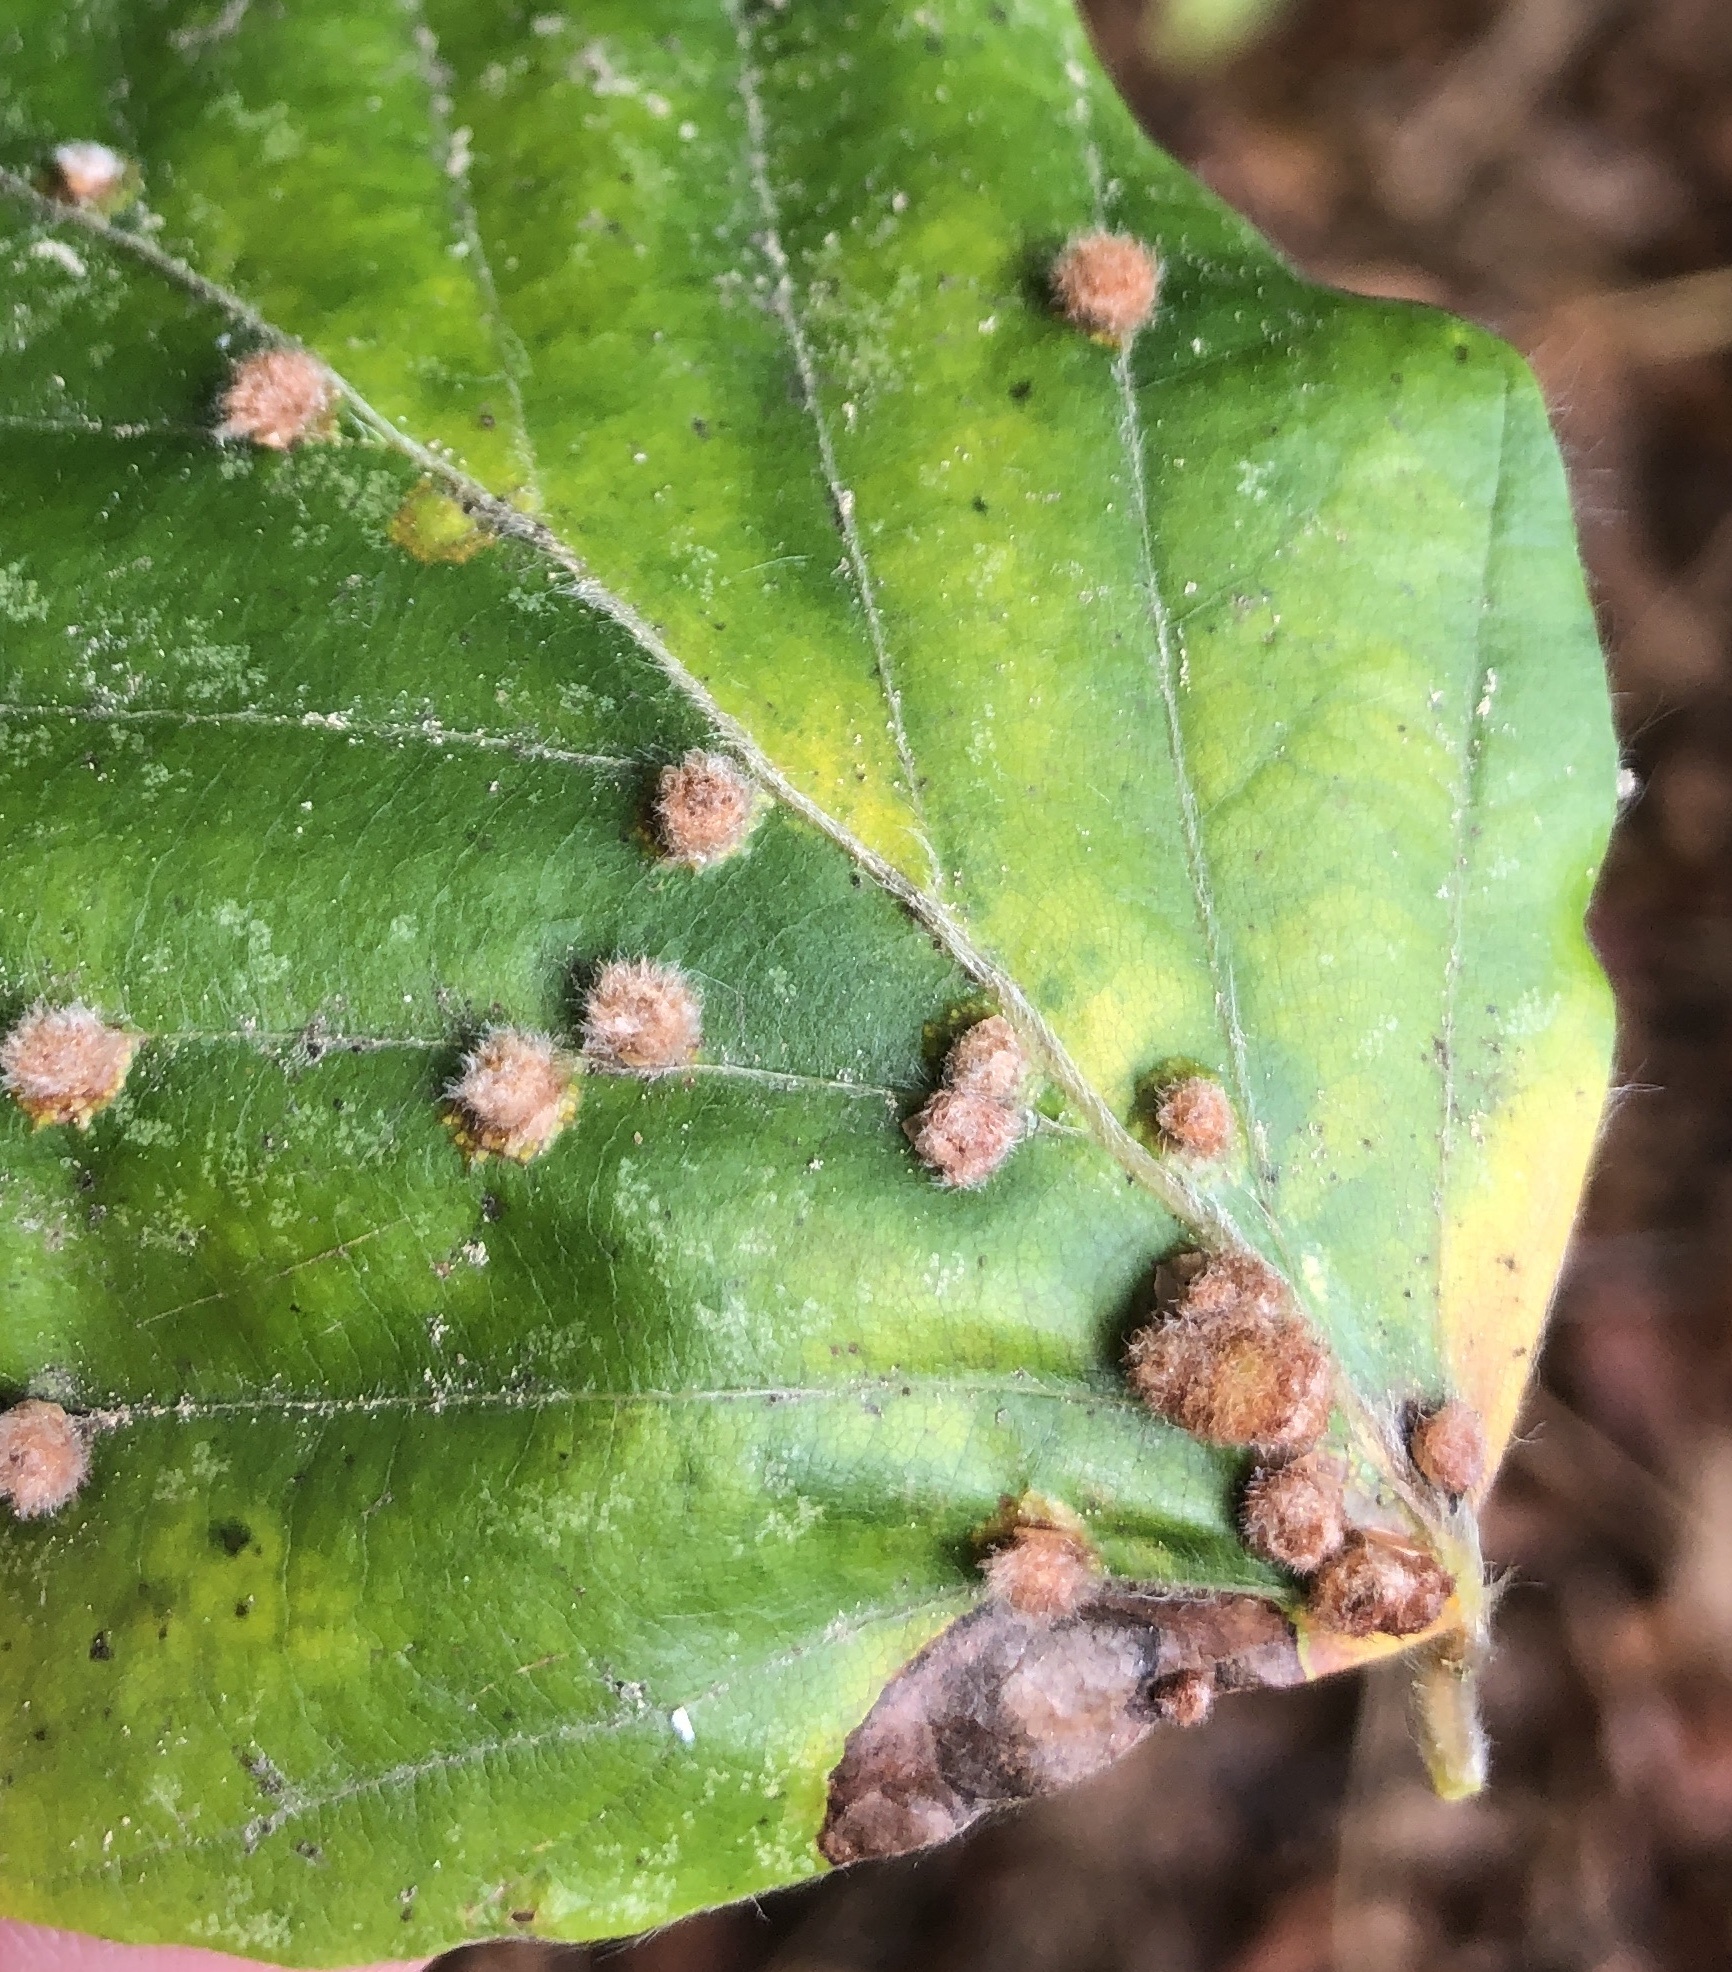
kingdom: Animalia
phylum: Arthropoda
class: Insecta
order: Diptera
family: Cecidomyiidae
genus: Hartigiola
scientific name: Hartigiola annulipes
